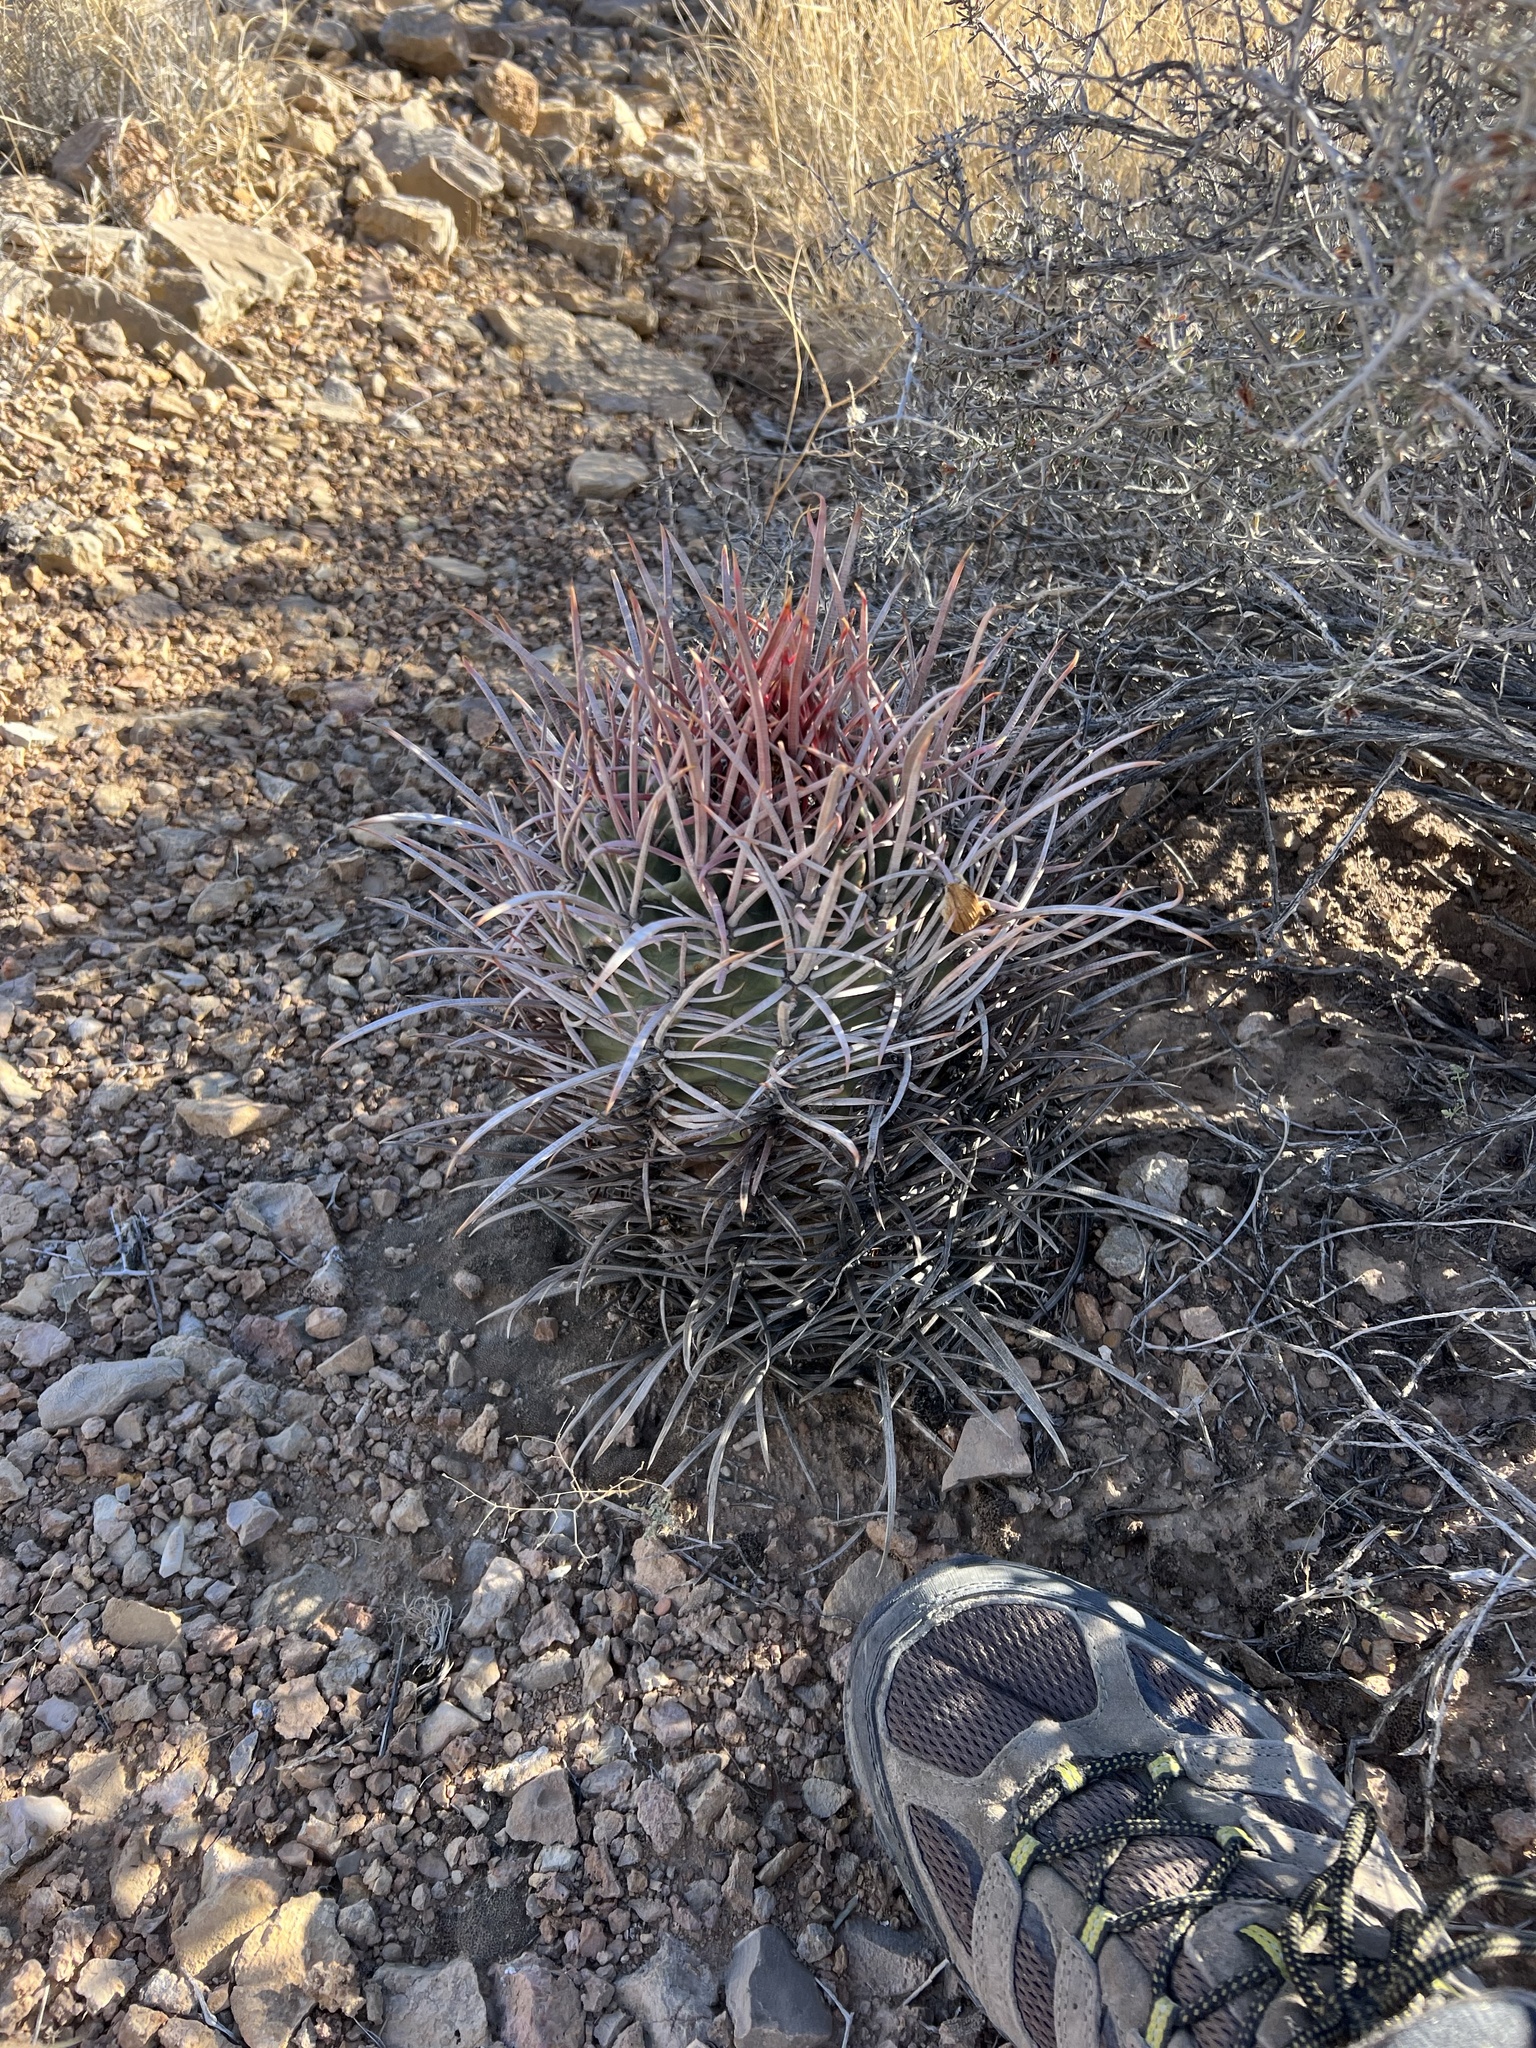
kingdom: Plantae
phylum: Tracheophyta
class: Magnoliopsida
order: Caryophyllales
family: Cactaceae
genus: Echinocactus
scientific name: Echinocactus polycephalus
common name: Cottontop cactus
